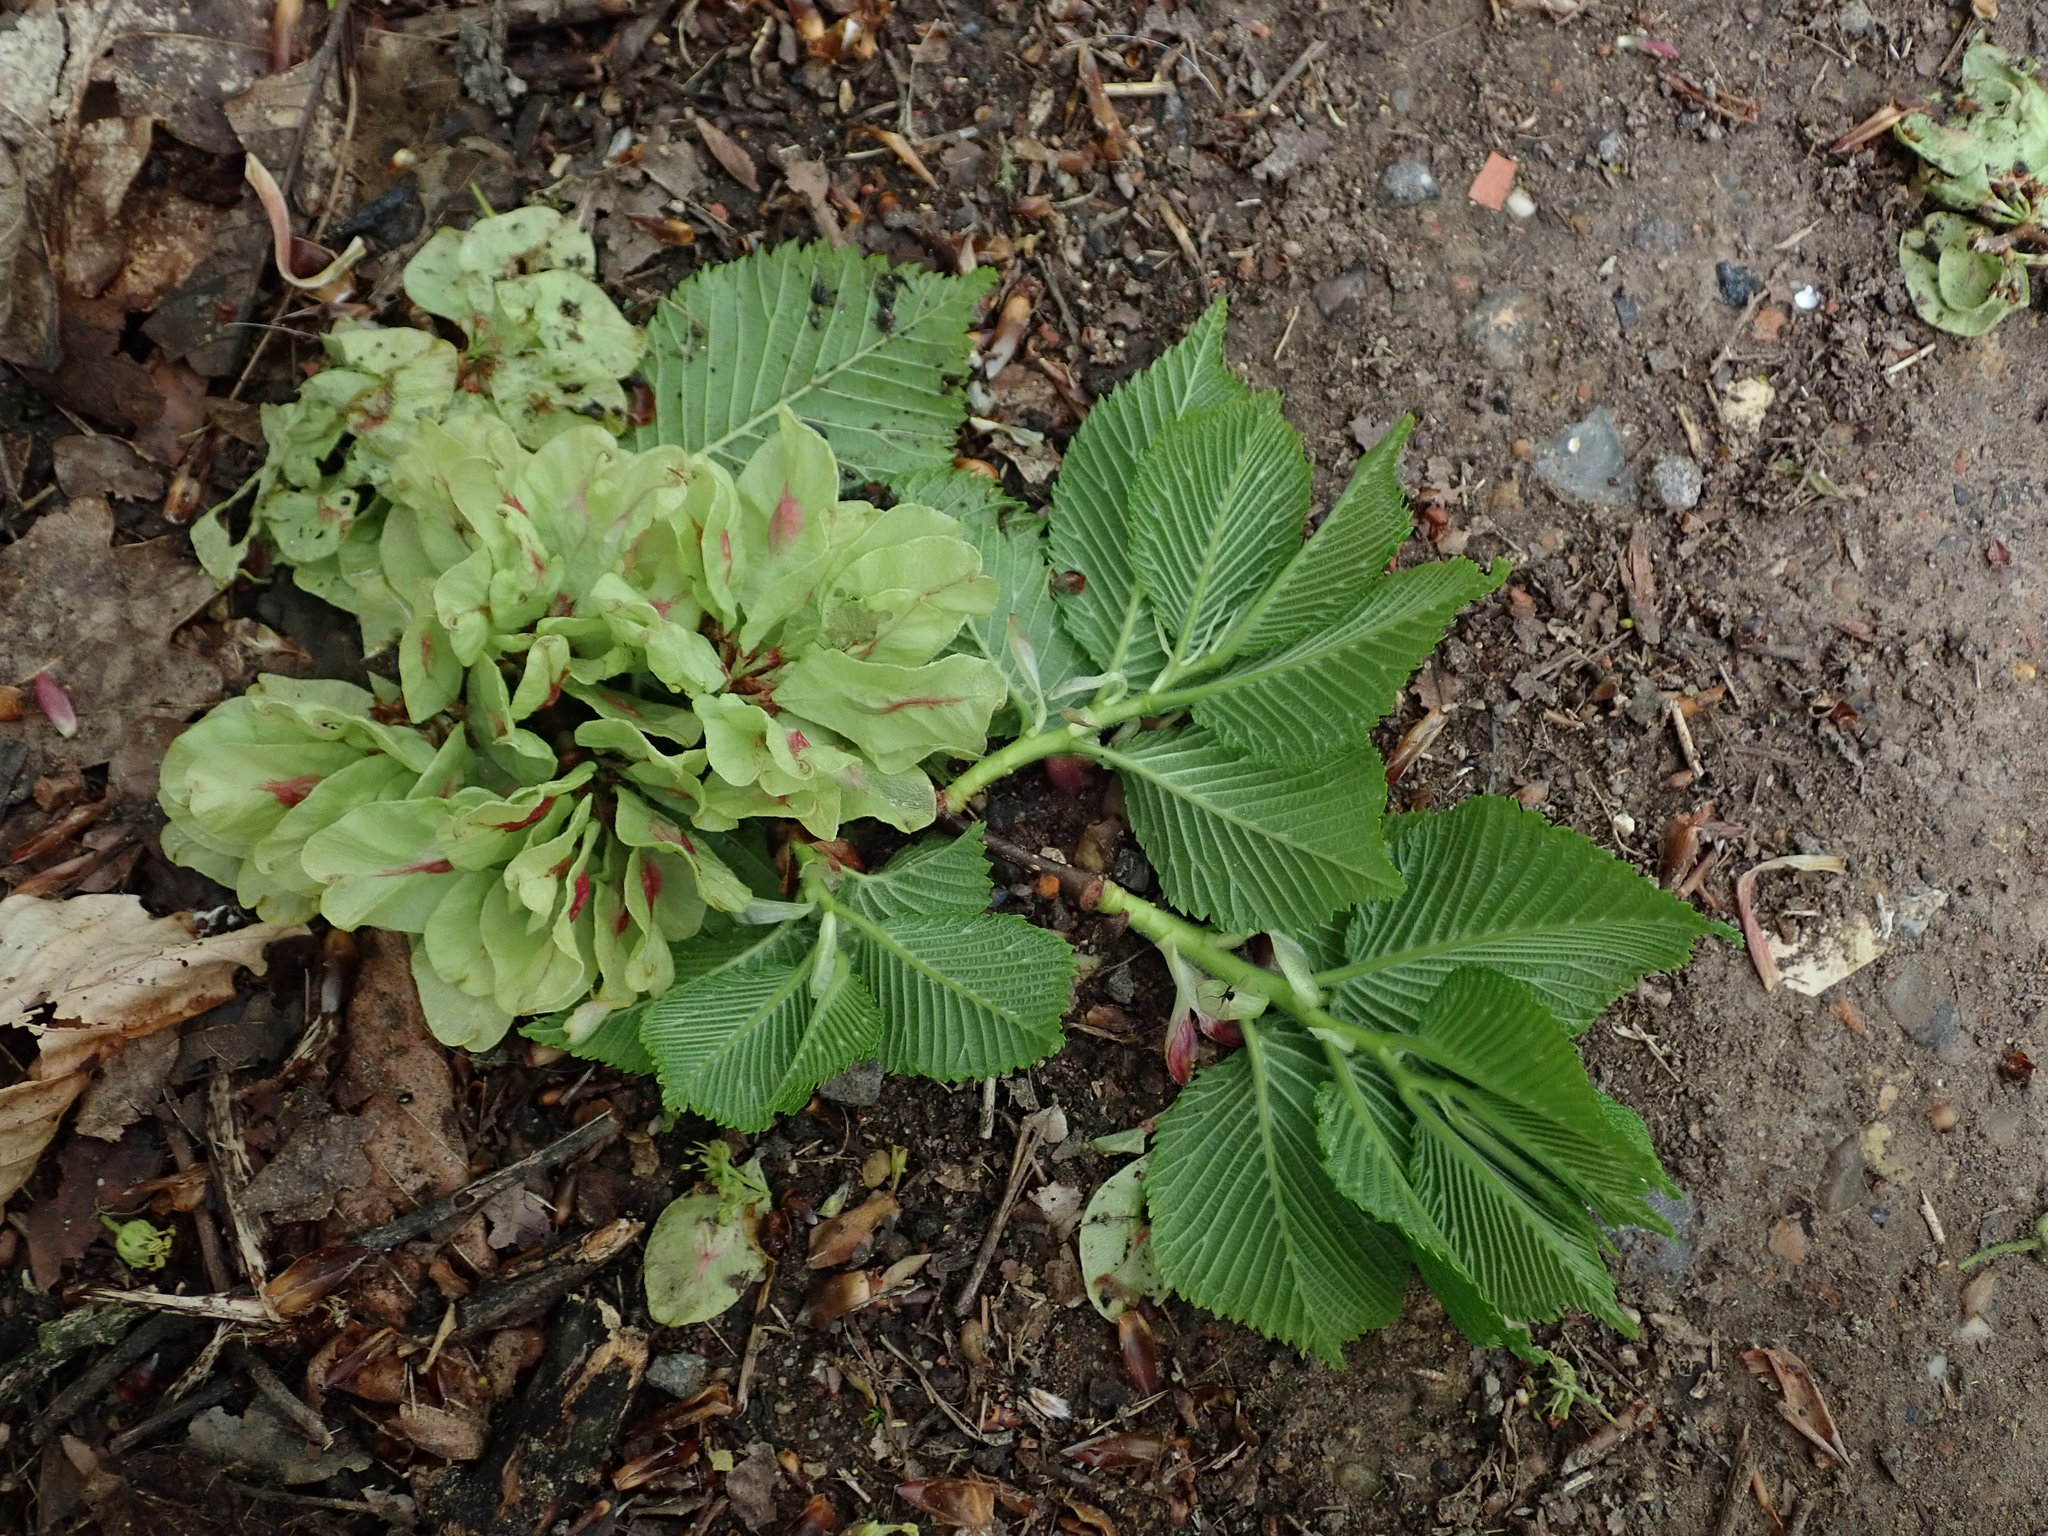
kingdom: Plantae
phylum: Tracheophyta
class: Magnoliopsida
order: Rosales
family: Ulmaceae
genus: Ulmus
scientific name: Ulmus glabra
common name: Wych elm
